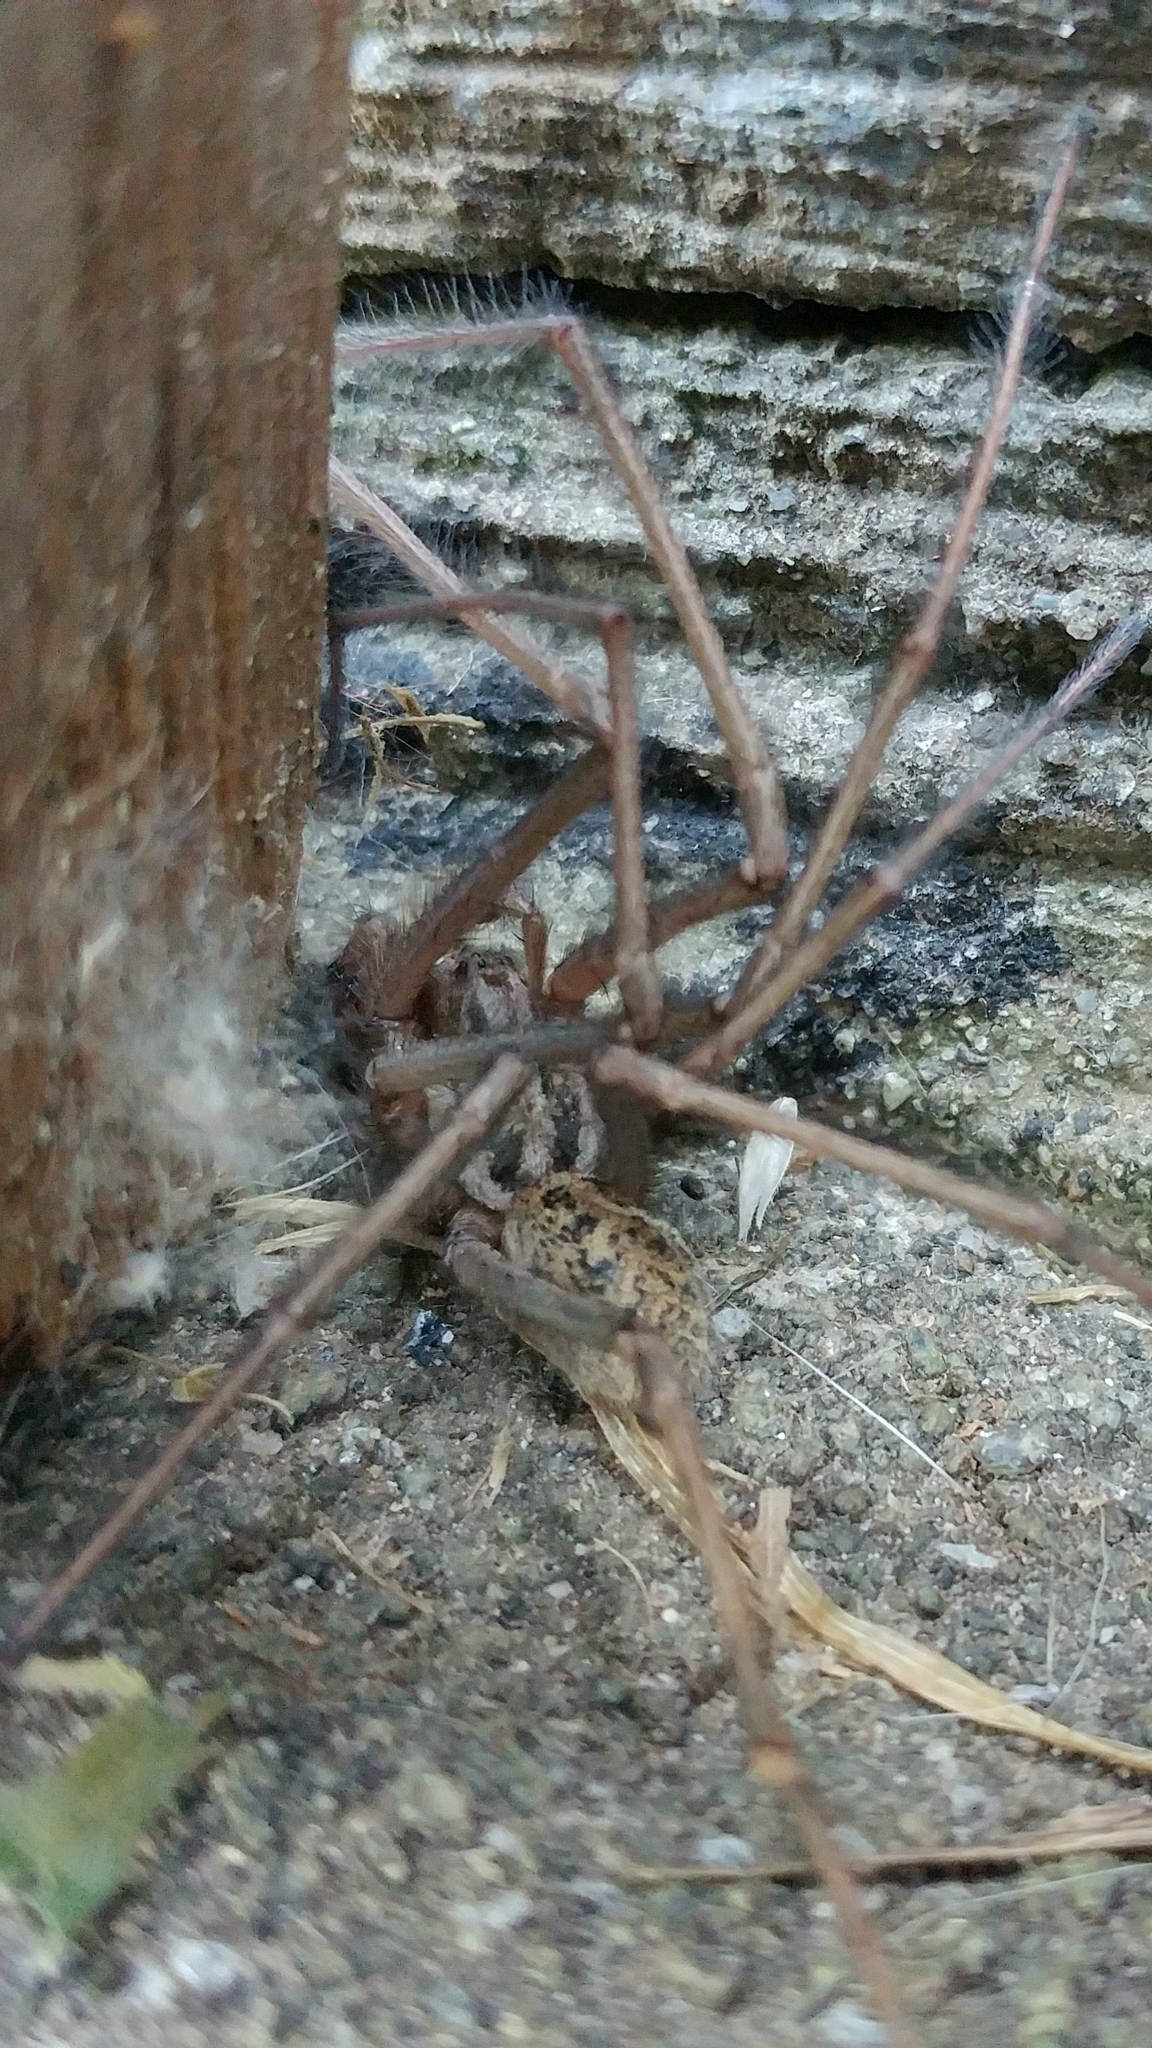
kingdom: Animalia
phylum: Arthropoda
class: Arachnida
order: Araneae
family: Agelenidae
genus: Eratigena
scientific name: Eratigena duellica
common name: Giant house spider
